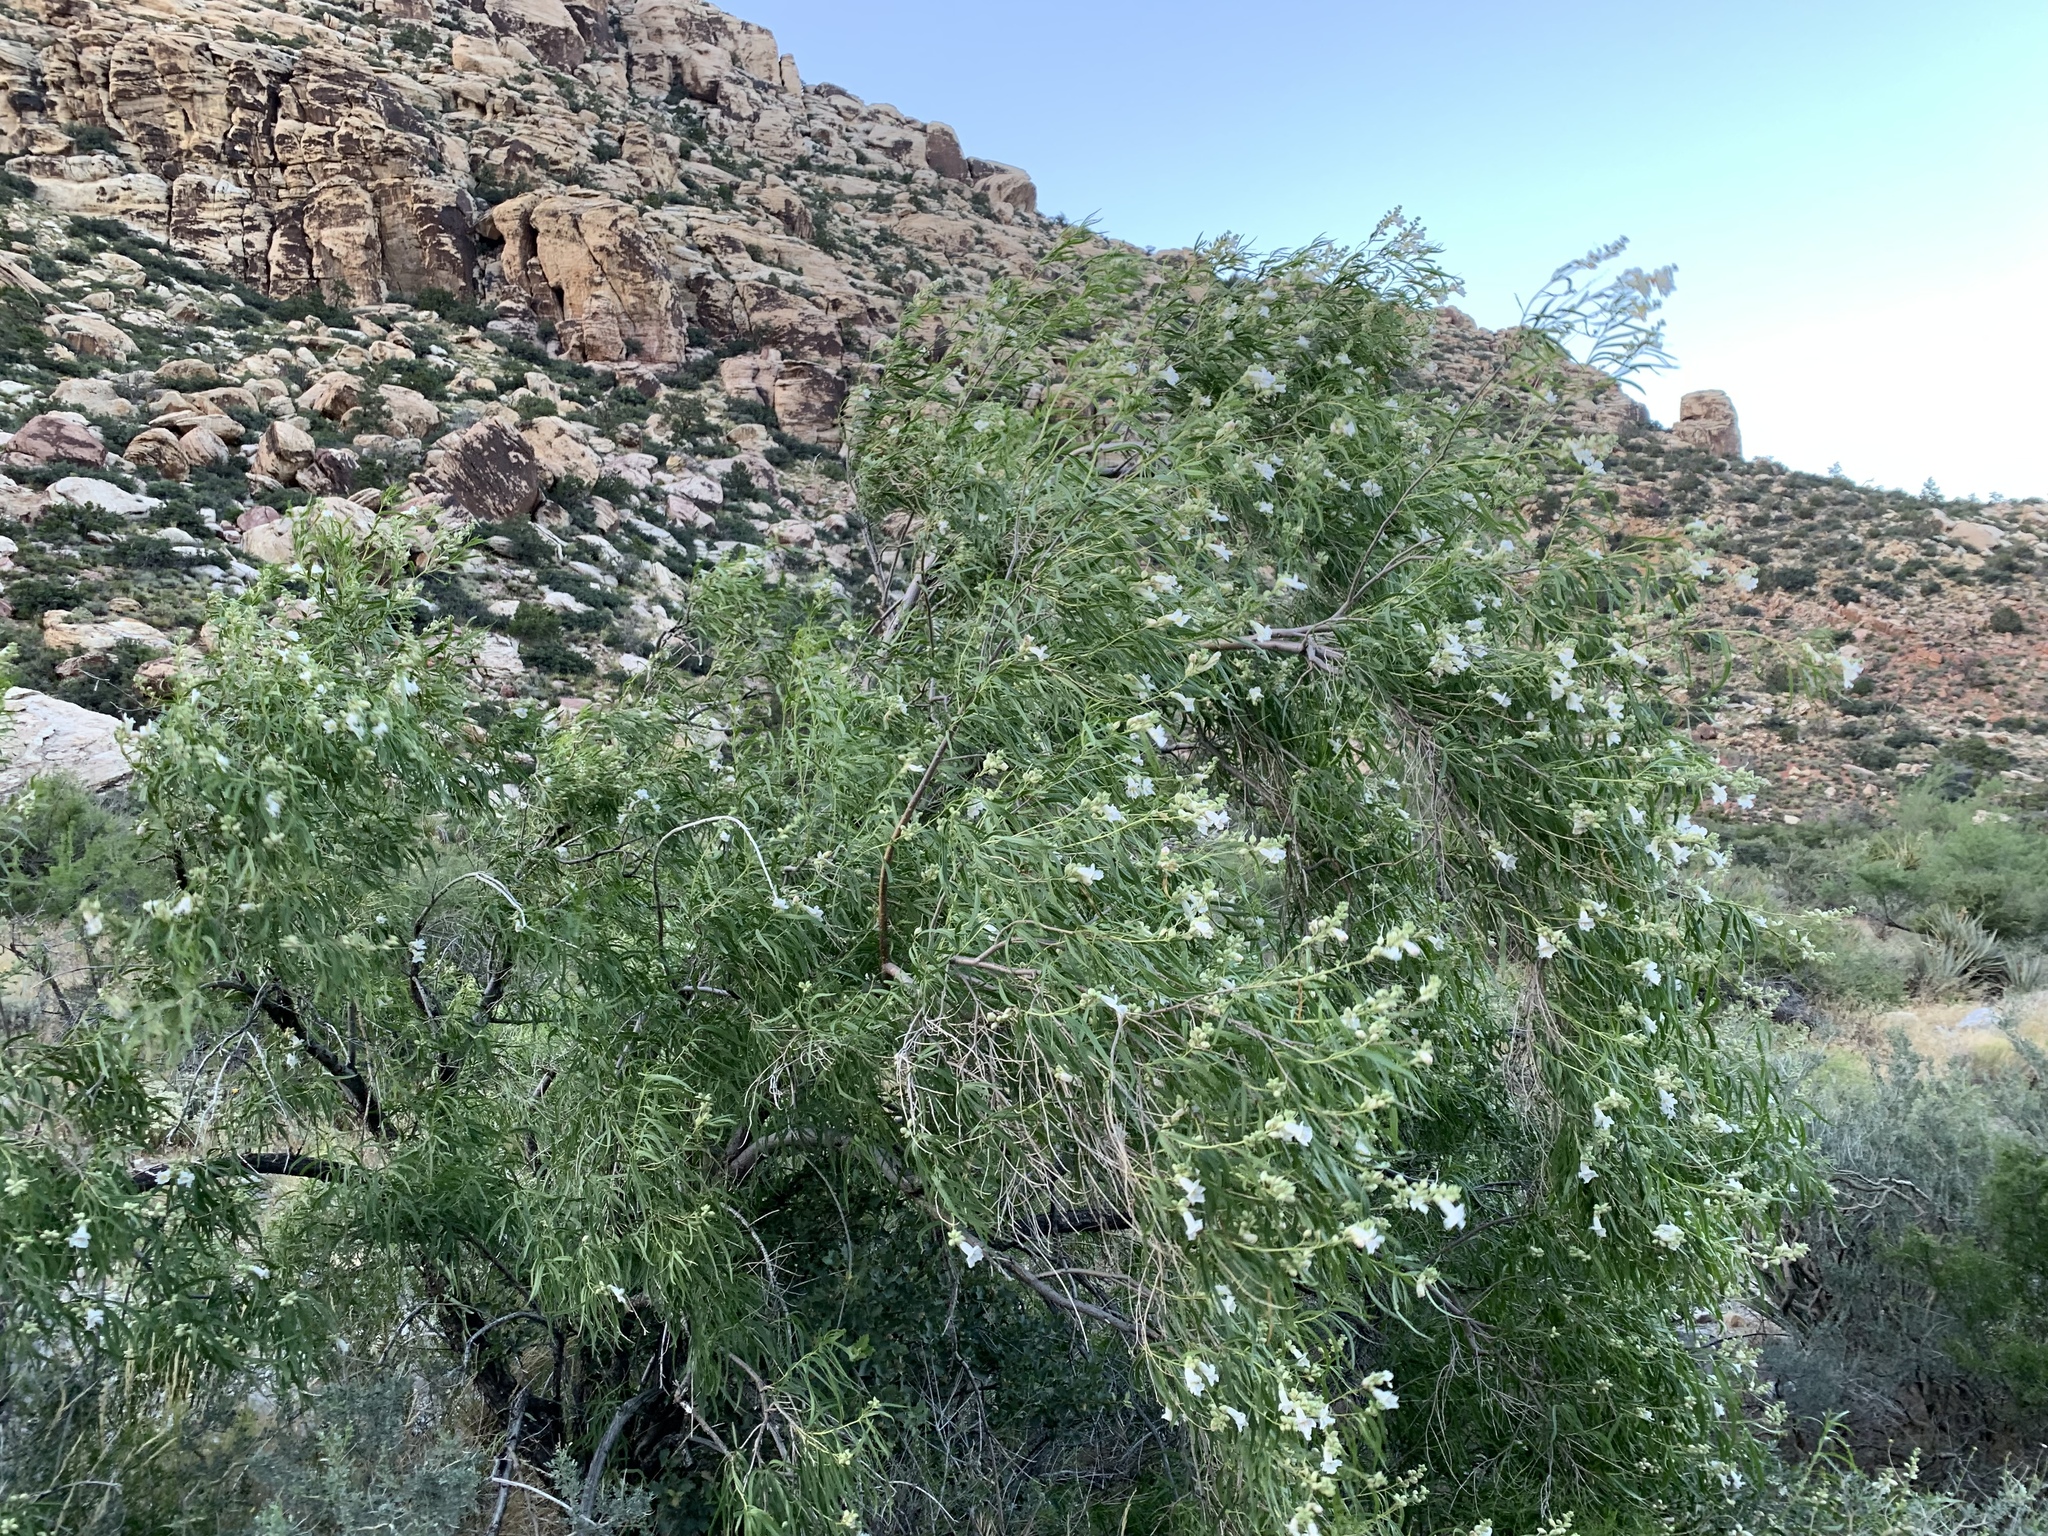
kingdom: Plantae
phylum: Tracheophyta
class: Magnoliopsida
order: Lamiales
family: Bignoniaceae
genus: Chilopsis
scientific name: Chilopsis linearis
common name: Desert-willow
